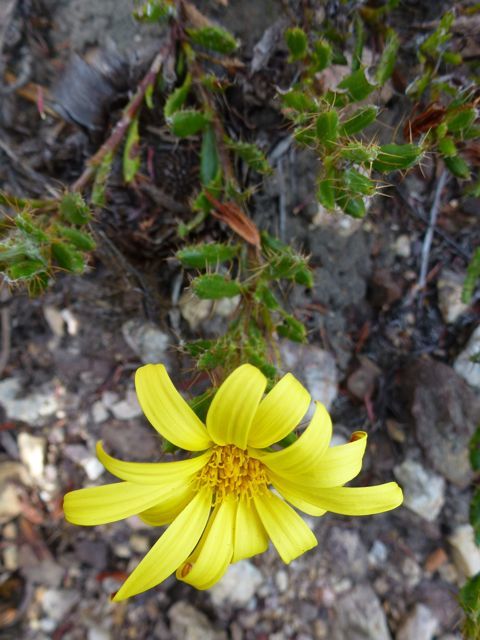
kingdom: Plantae
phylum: Tracheophyta
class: Magnoliopsida
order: Asterales
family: Asteraceae
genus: Cullumia
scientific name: Cullumia aculeata
